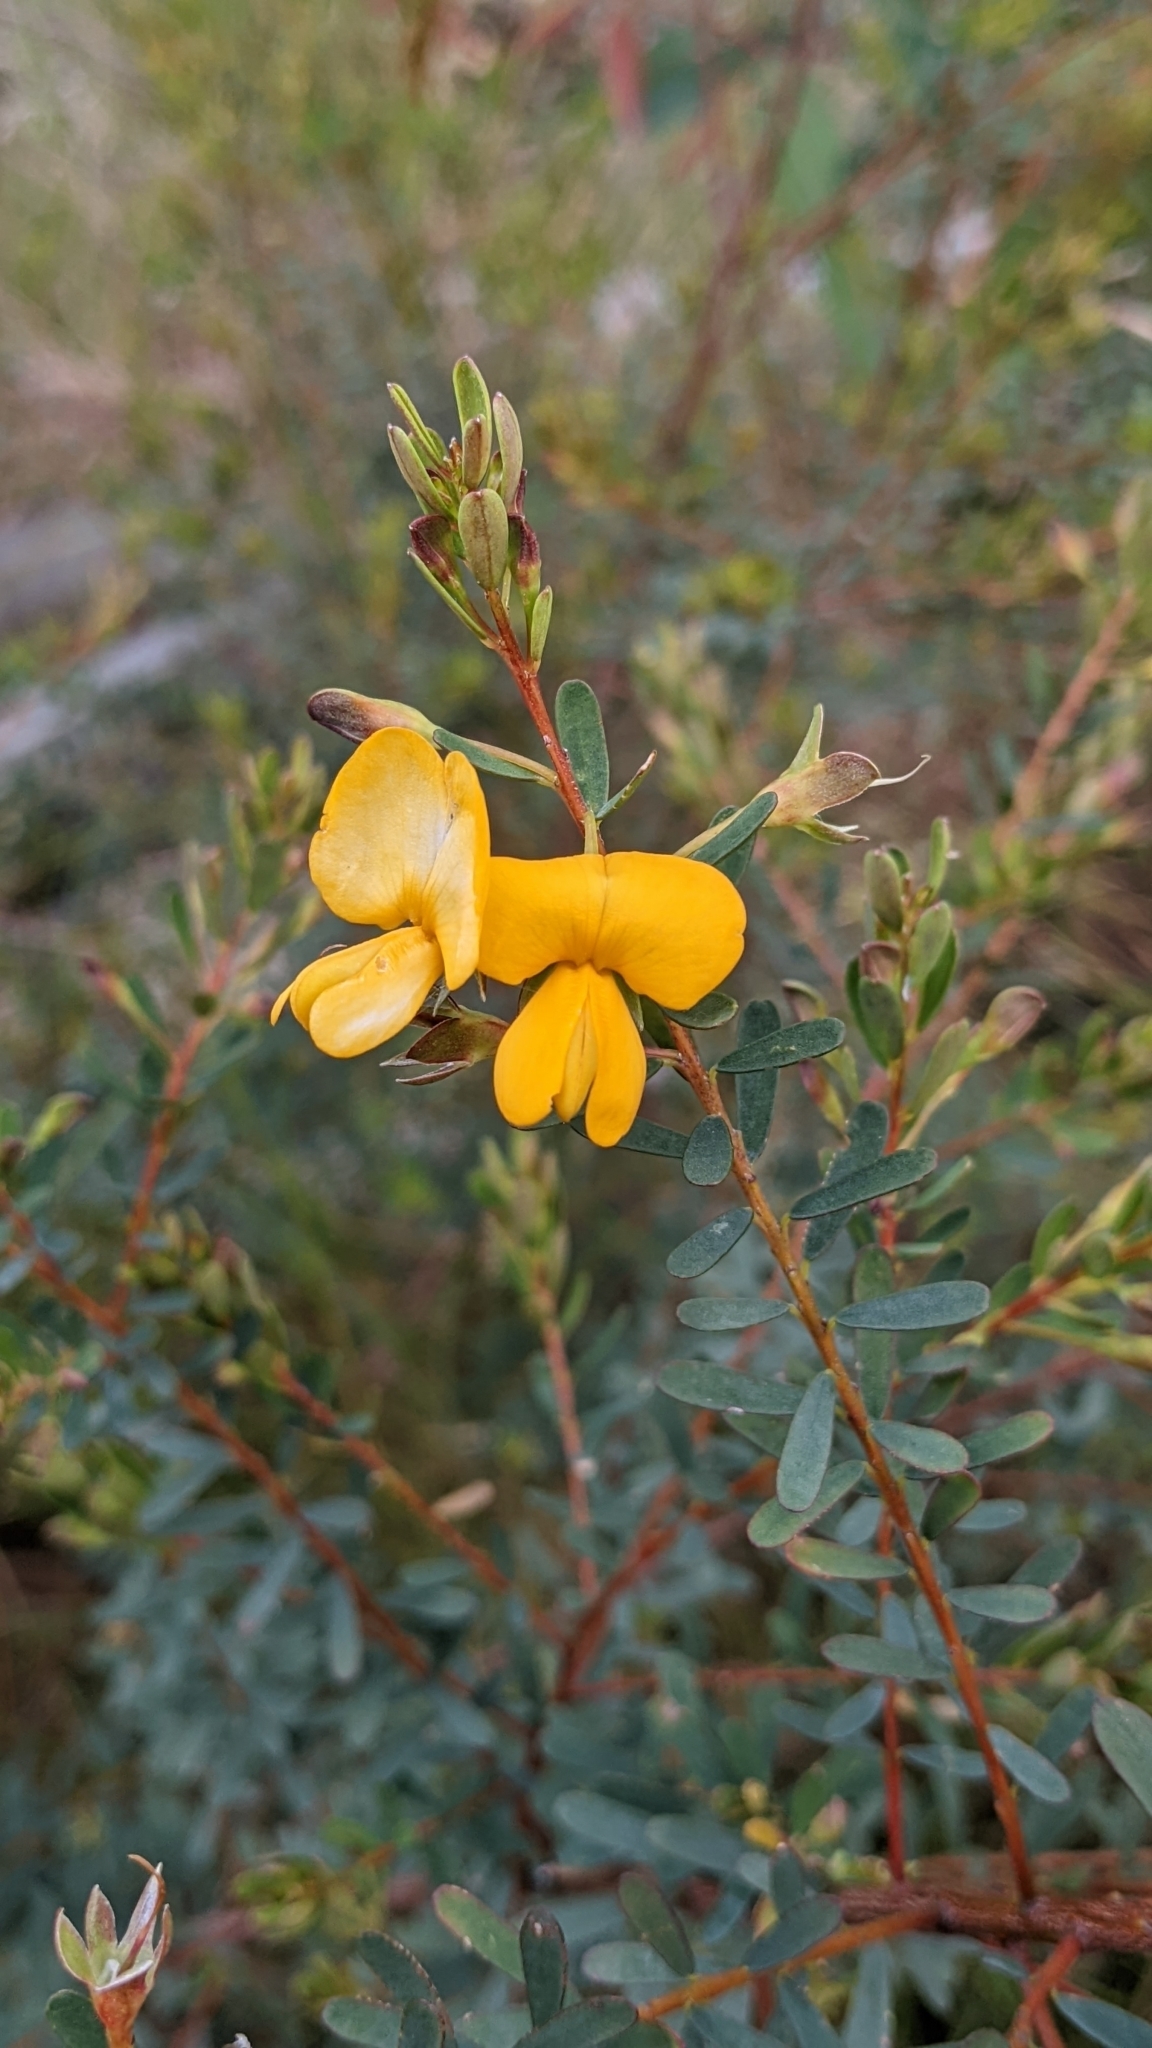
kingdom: Plantae
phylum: Tracheophyta
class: Magnoliopsida
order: Fabales
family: Fabaceae
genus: Pultenaea
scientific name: Pultenaea euchila
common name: Large-flower bush-pea
